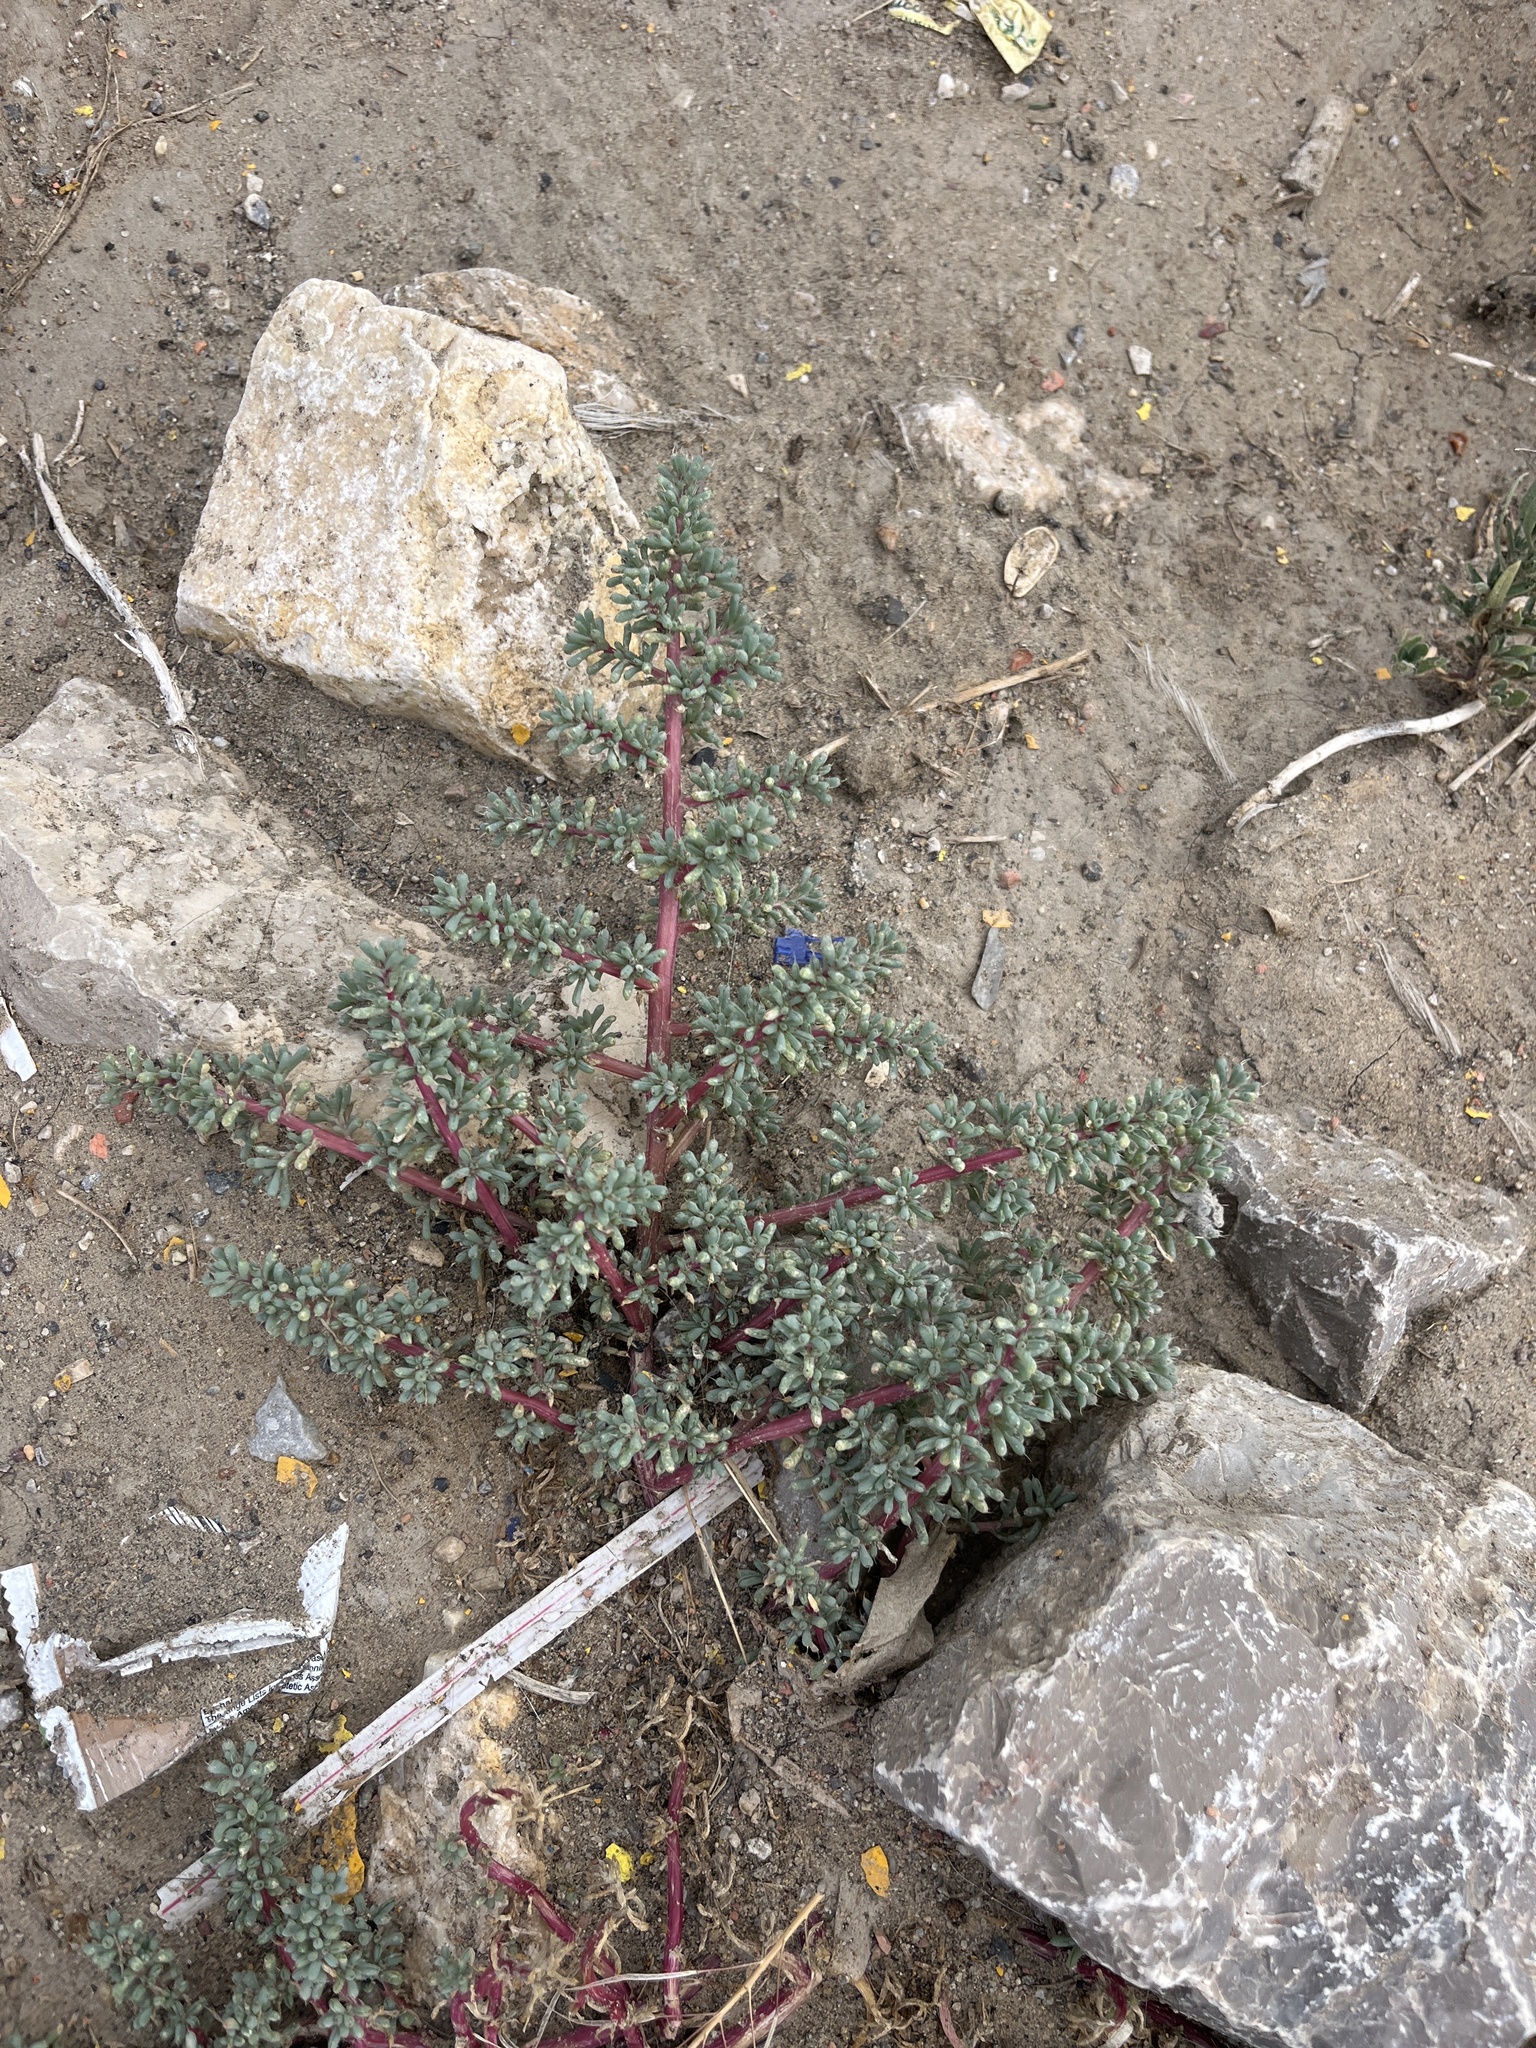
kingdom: Plantae
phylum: Tracheophyta
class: Magnoliopsida
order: Caryophyllales
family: Amaranthaceae
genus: Halogeton
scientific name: Halogeton glomeratus
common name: Saltlover
